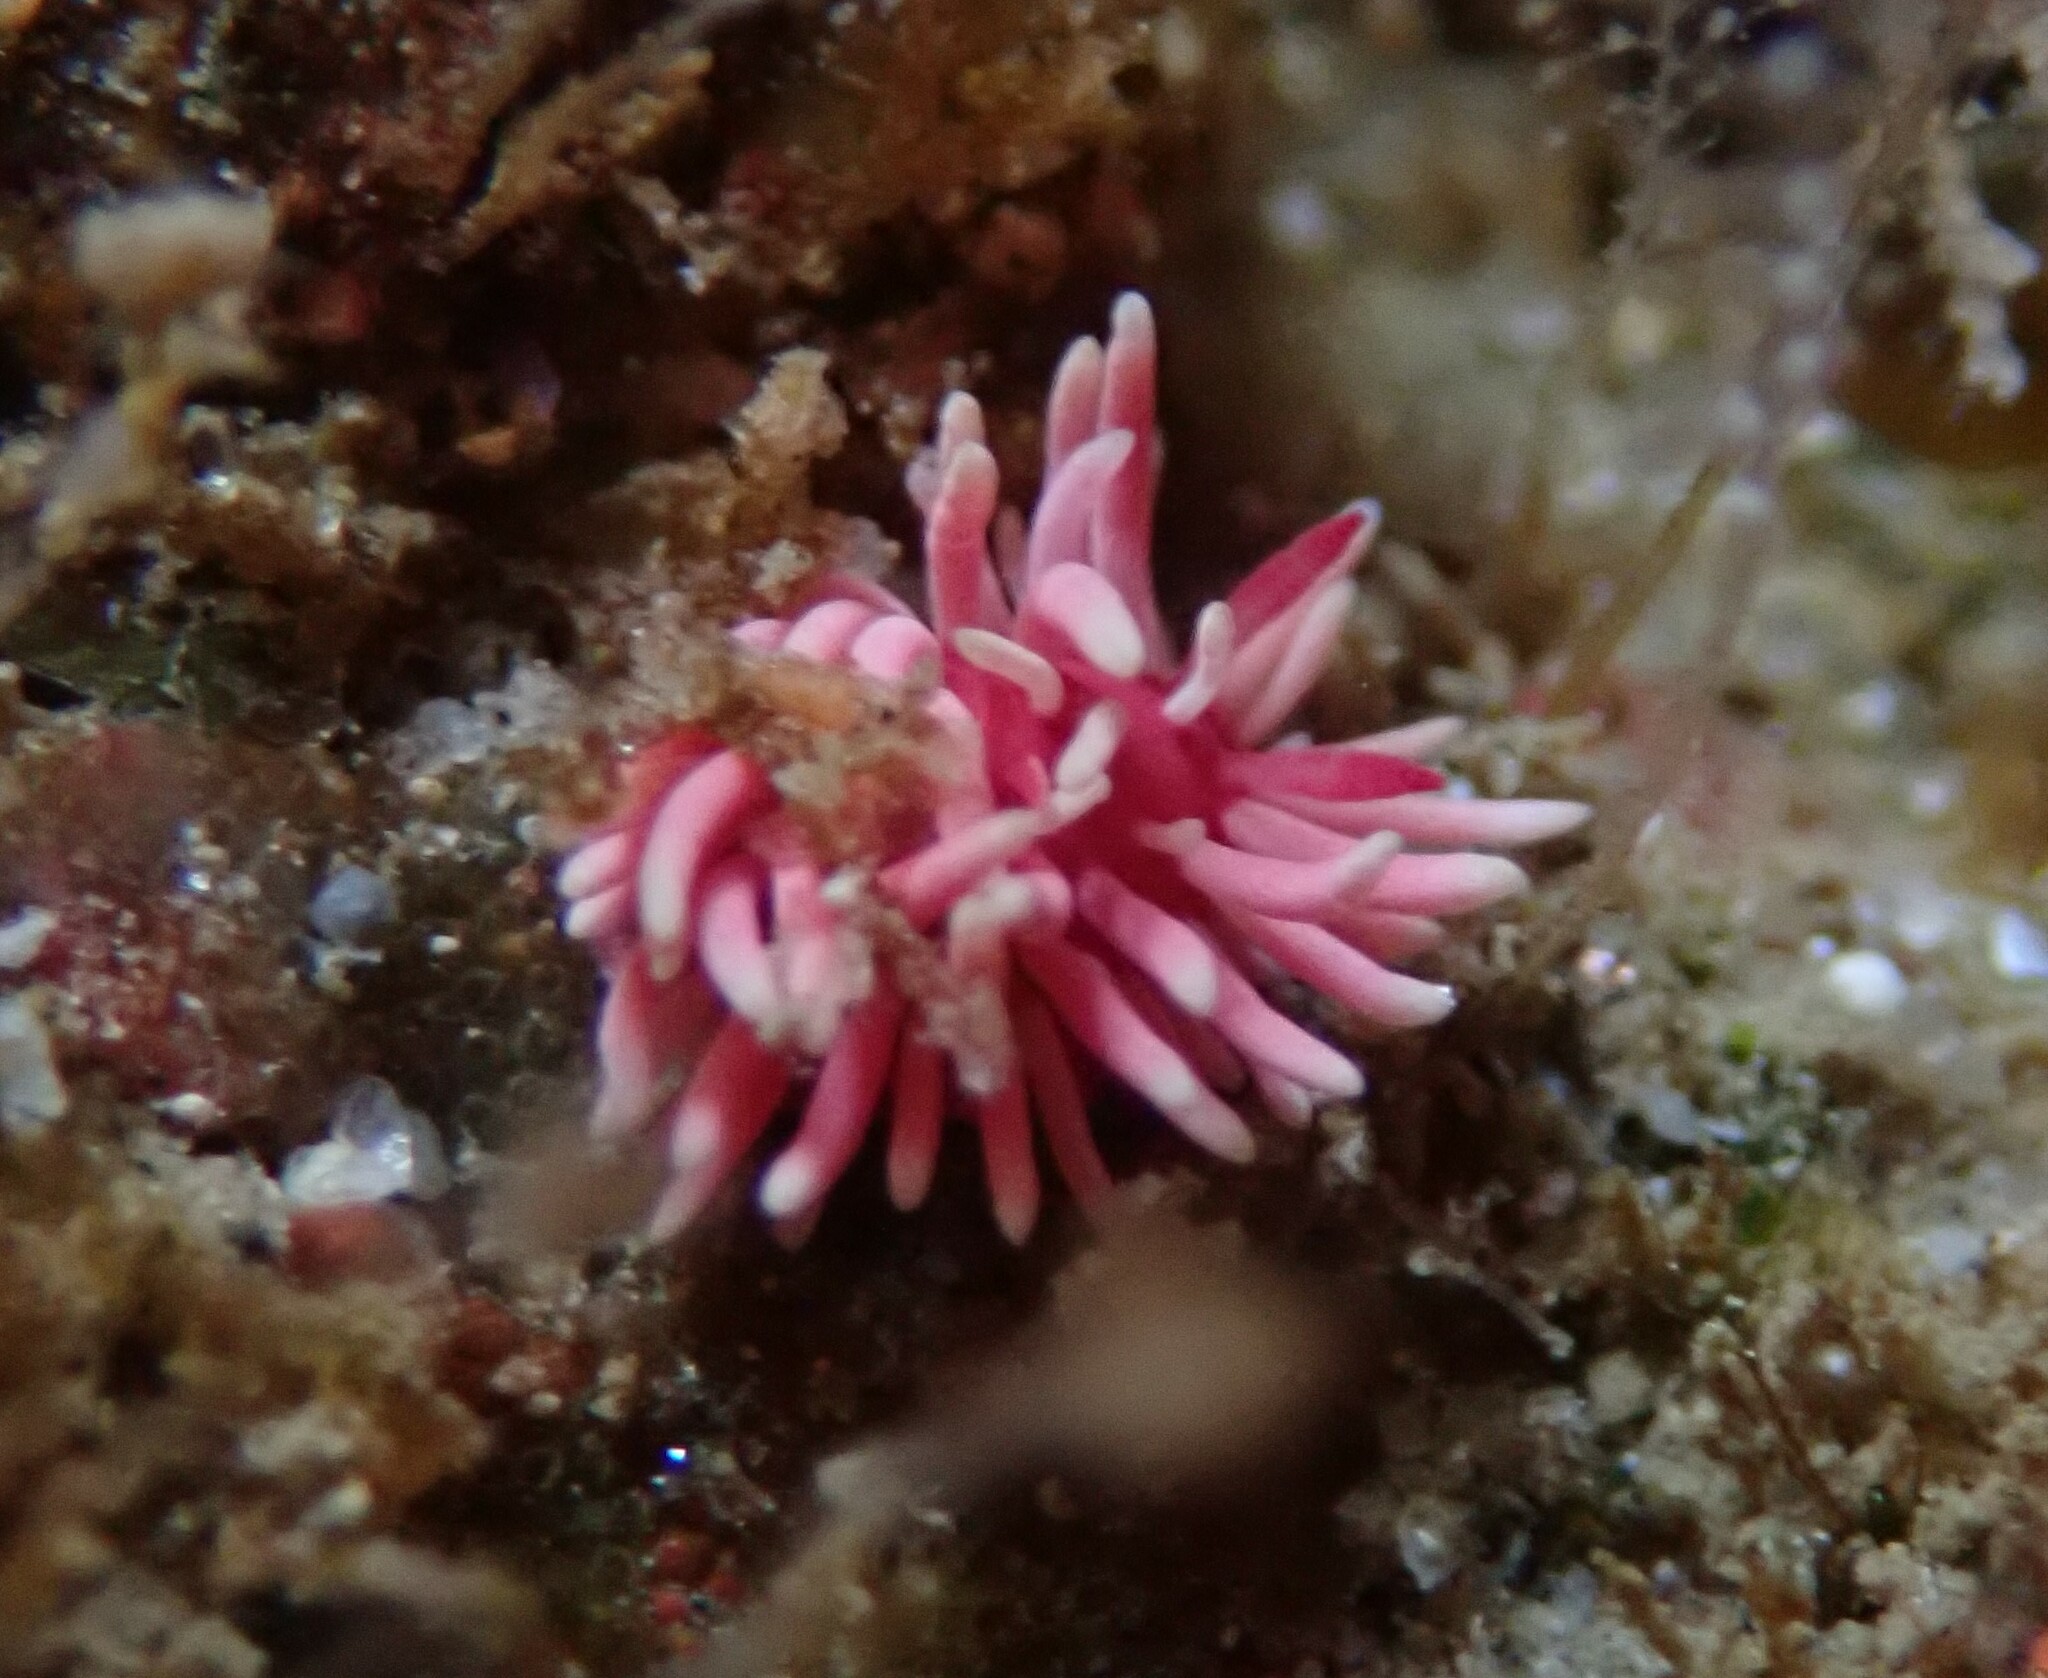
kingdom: Animalia
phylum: Mollusca
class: Gastropoda
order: Nudibranchia
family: Goniodorididae
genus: Okenia
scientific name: Okenia
